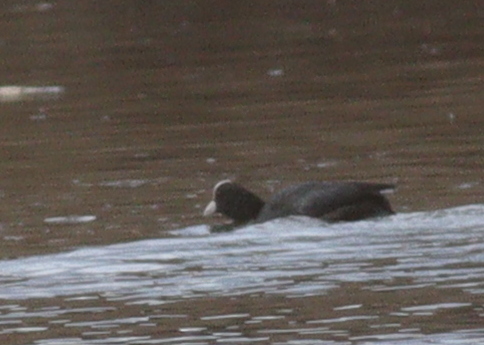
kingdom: Animalia
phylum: Chordata
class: Aves
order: Gruiformes
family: Rallidae
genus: Fulica
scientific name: Fulica atra
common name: Eurasian coot
